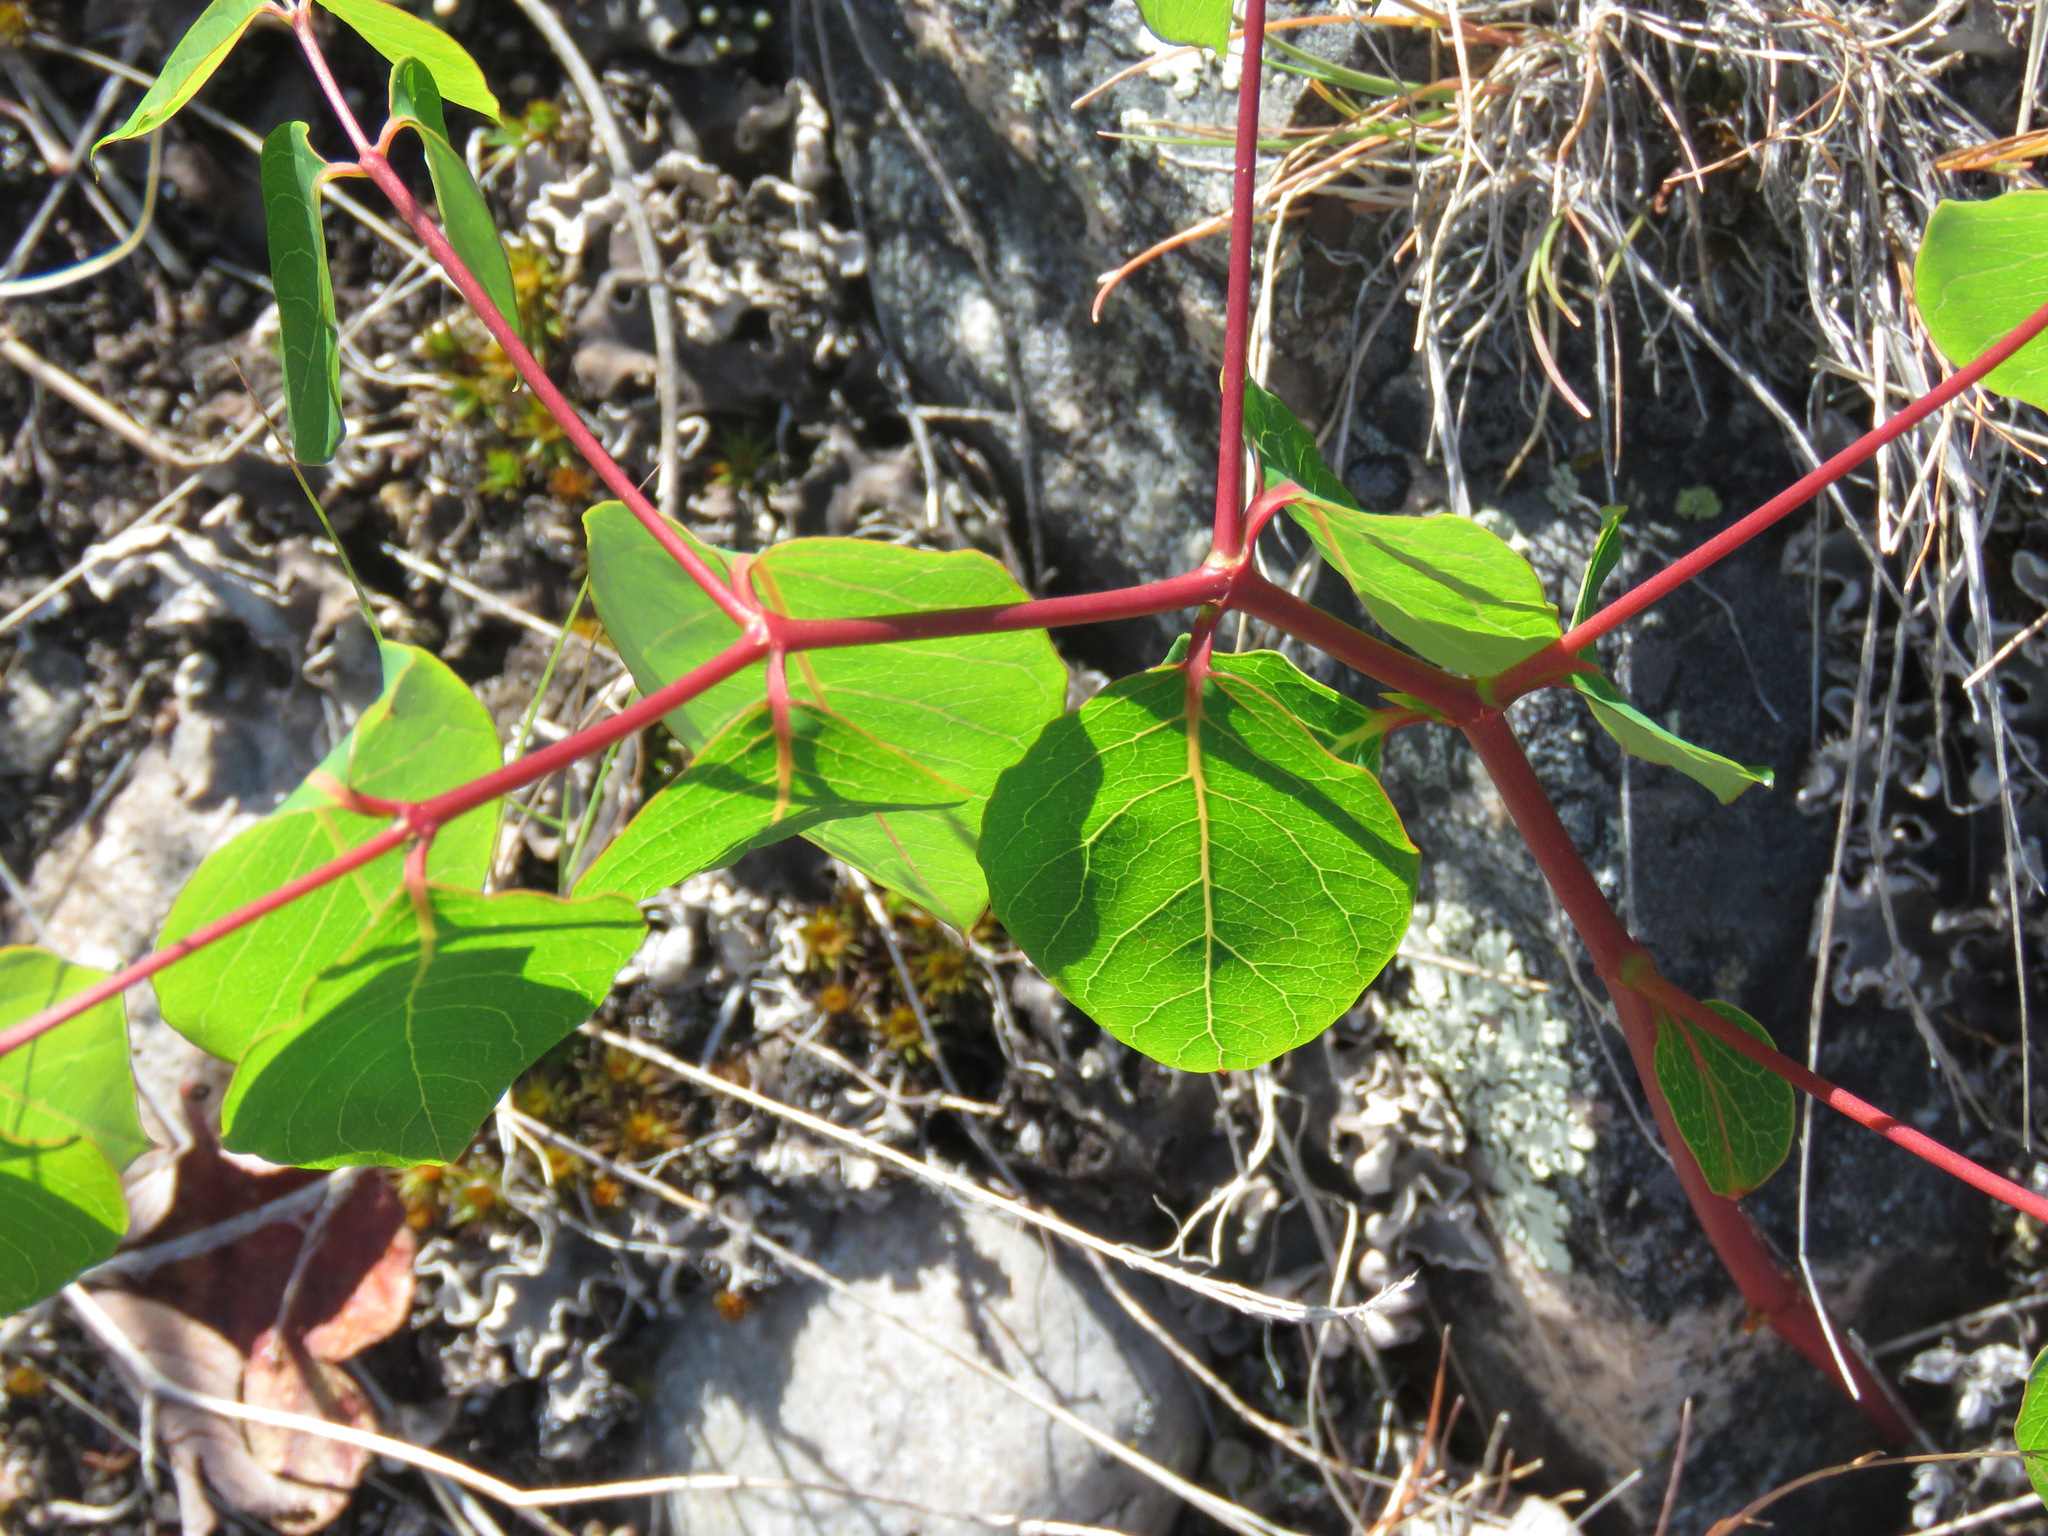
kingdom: Plantae
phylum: Tracheophyta
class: Magnoliopsida
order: Gentianales
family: Apocynaceae
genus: Apocynum
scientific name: Apocynum androsaemifolium
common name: Spreading dogbane
